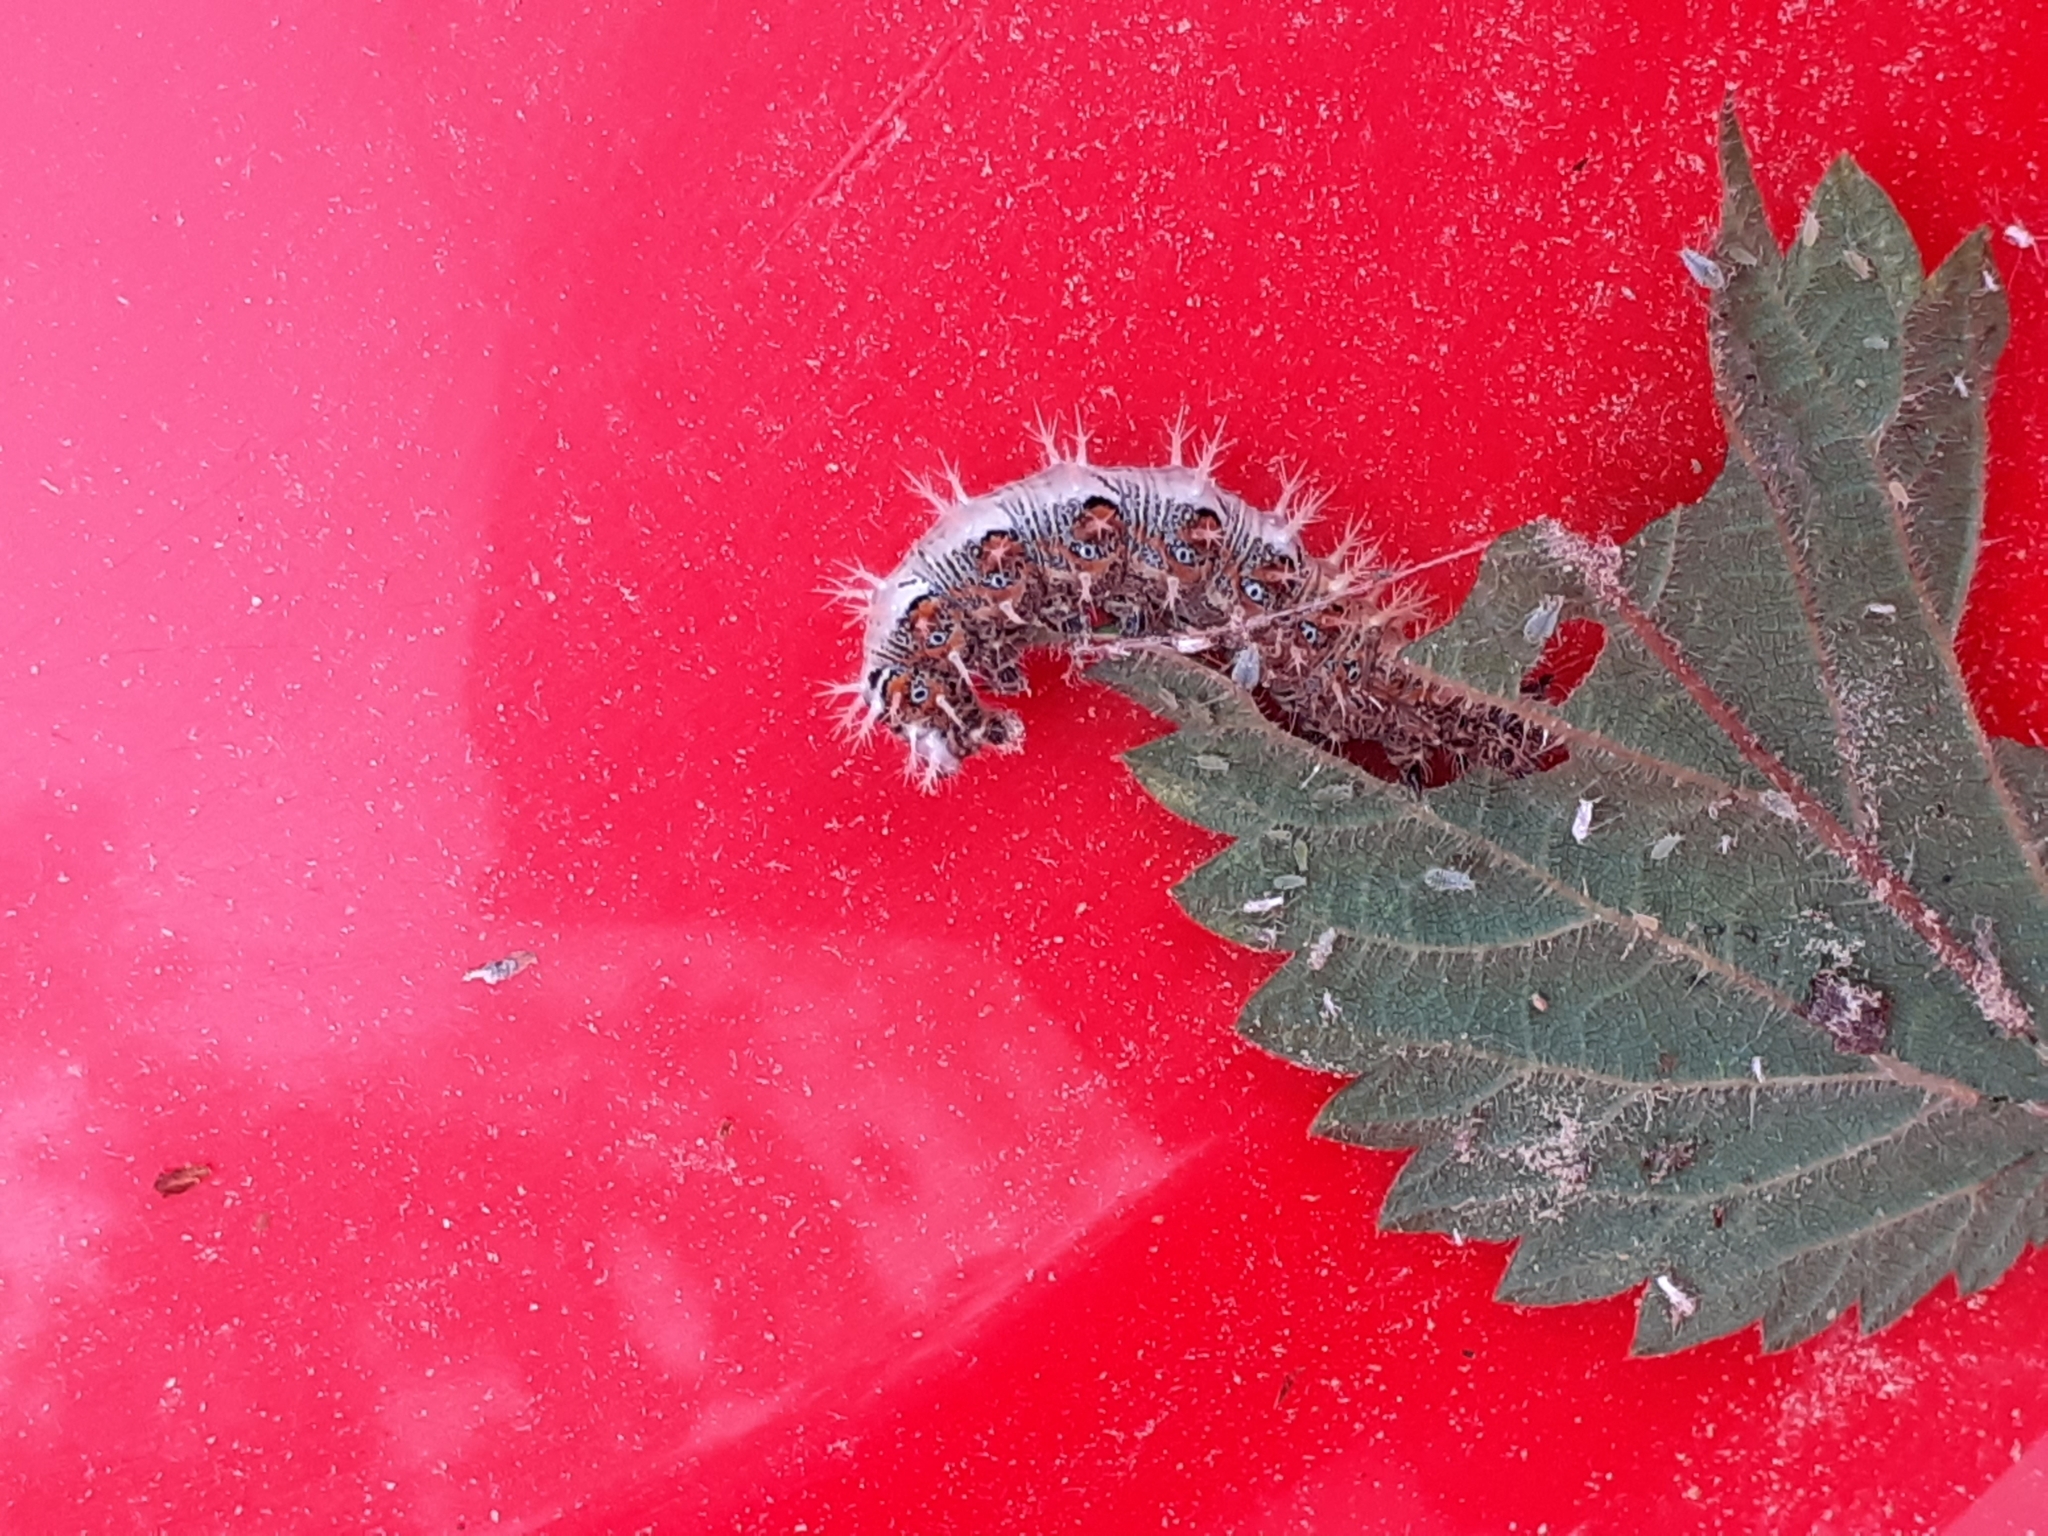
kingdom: Animalia
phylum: Arthropoda
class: Insecta
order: Lepidoptera
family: Nymphalidae
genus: Polygonia
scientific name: Polygonia c-album
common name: Comma
